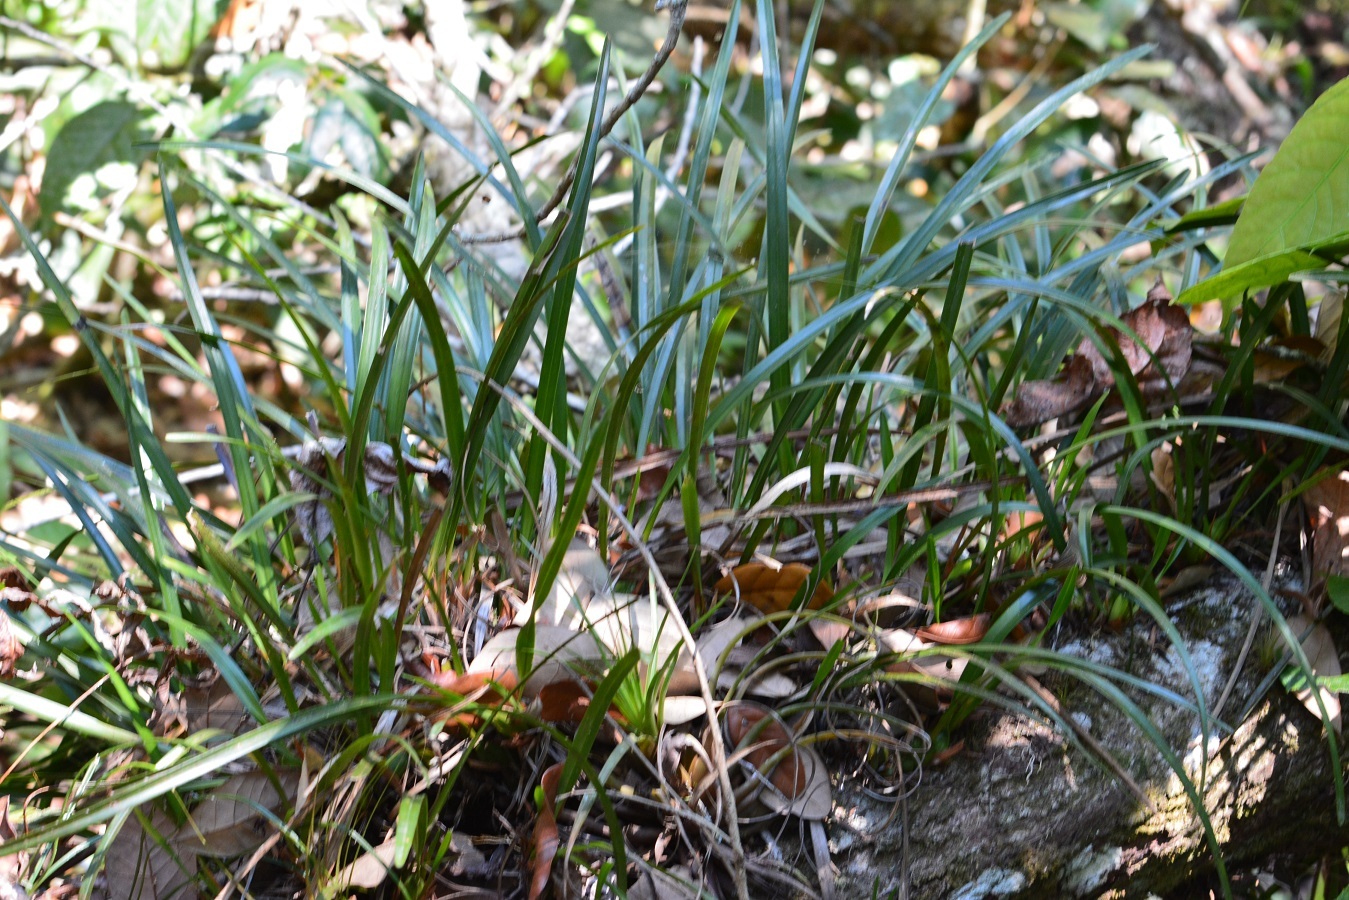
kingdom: Plantae
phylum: Tracheophyta
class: Liliopsida
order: Asparagales
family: Orchidaceae
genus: Maxillaria
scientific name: Maxillaria meleagris
